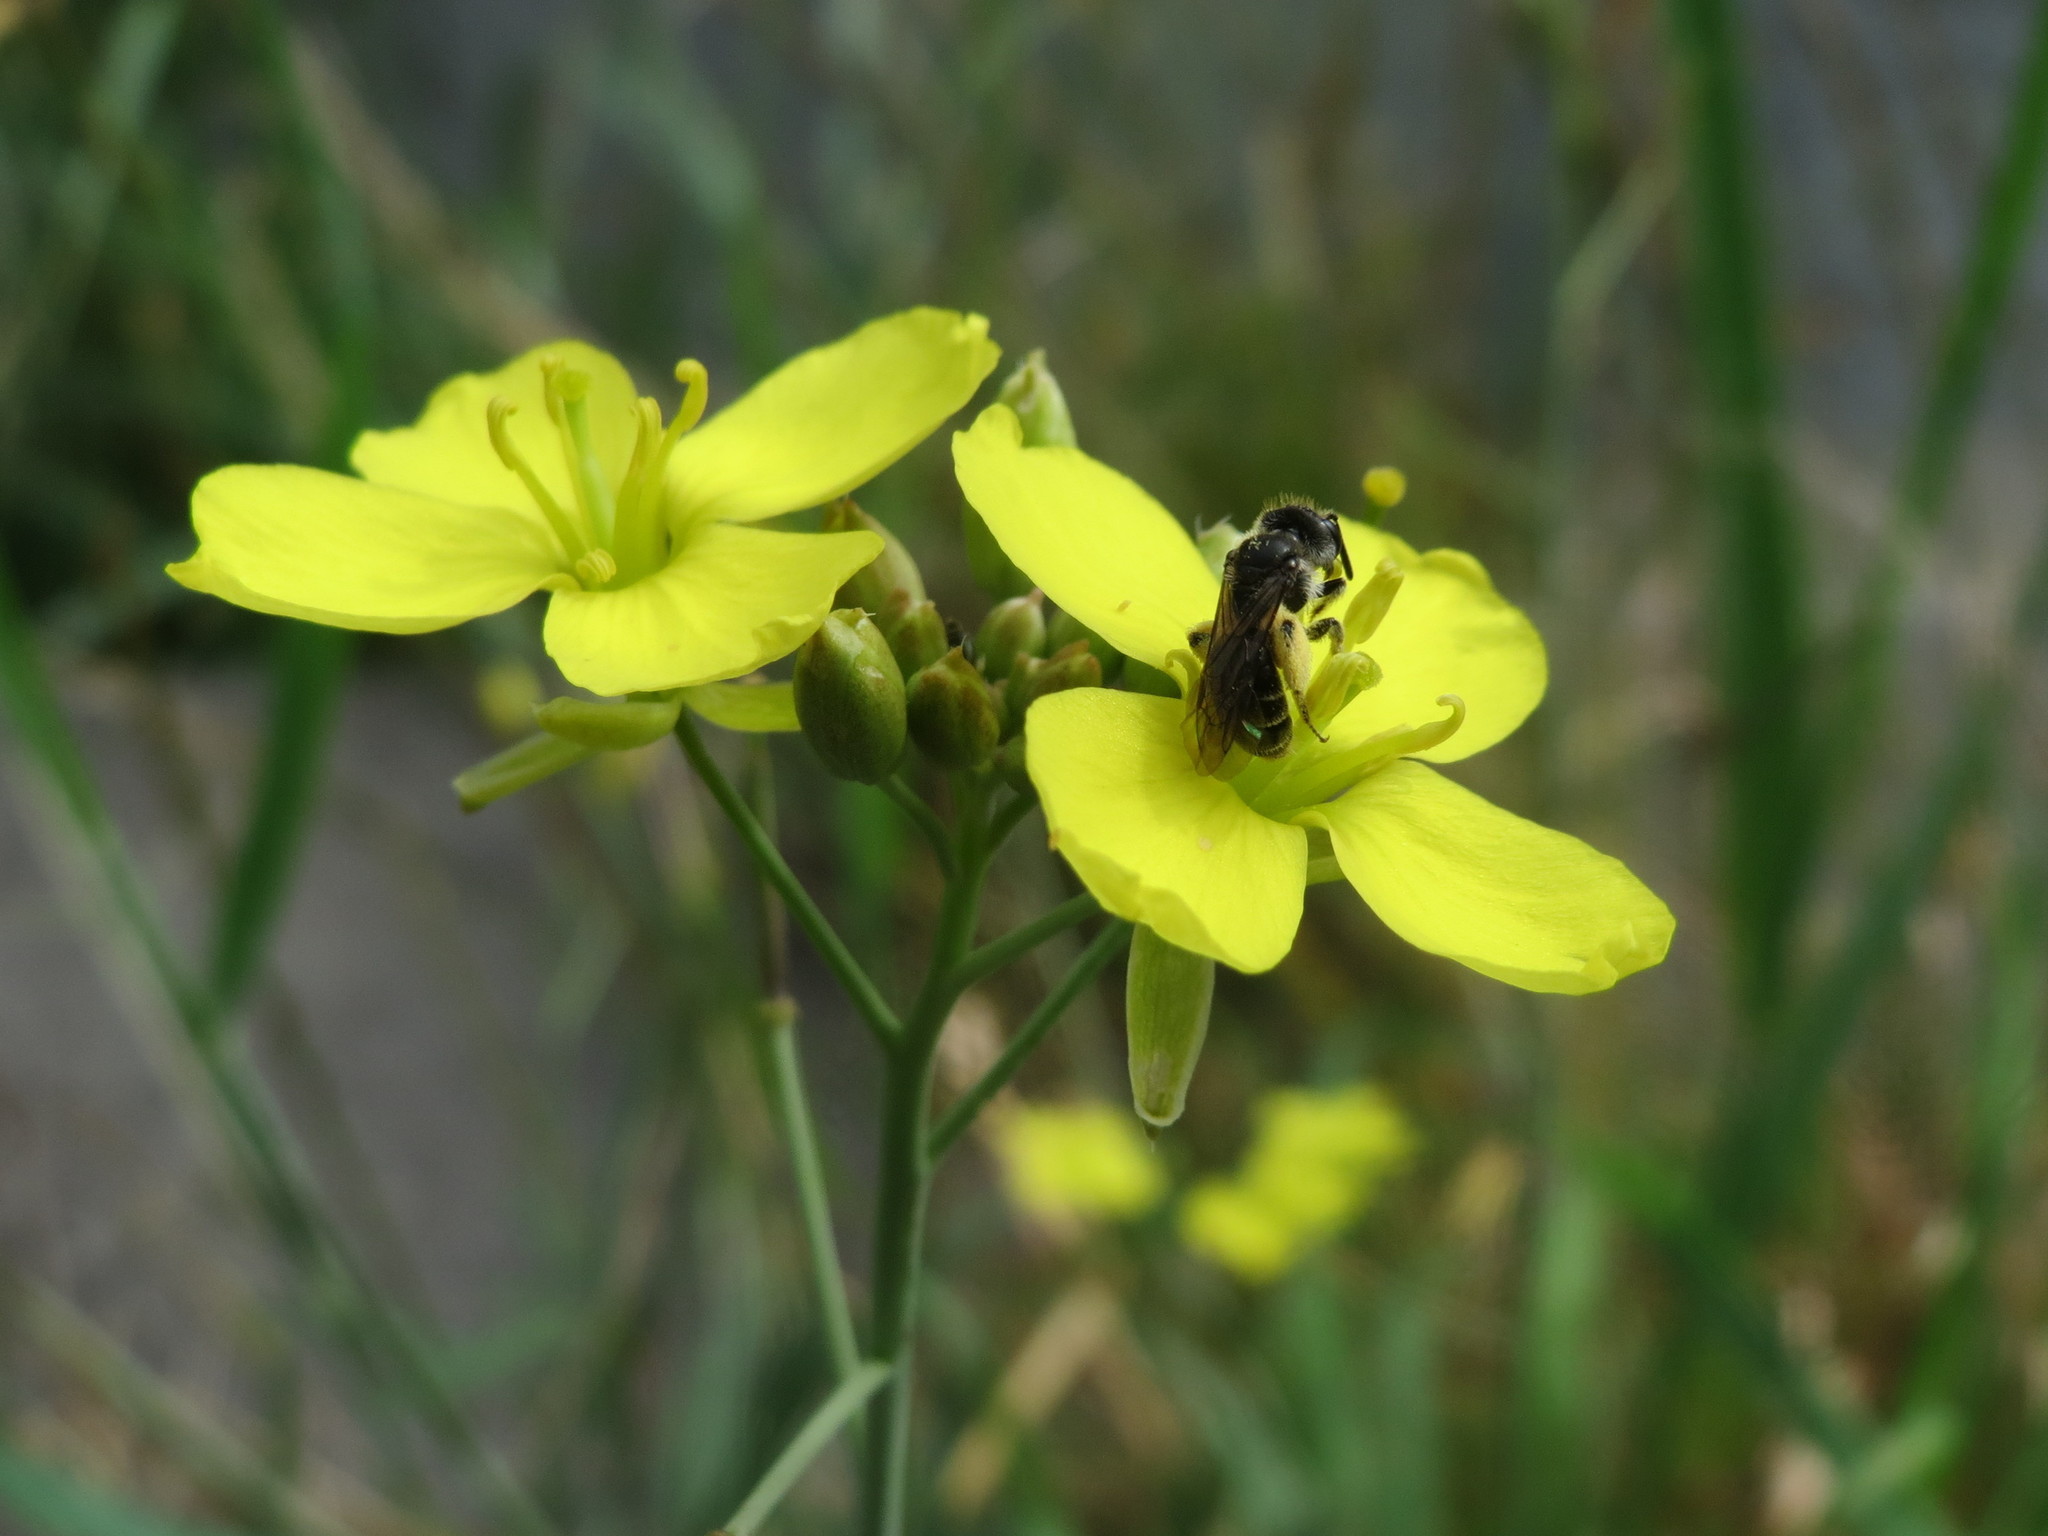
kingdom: Plantae
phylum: Tracheophyta
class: Magnoliopsida
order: Brassicales
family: Brassicaceae
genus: Diplotaxis
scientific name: Diplotaxis tenuifolia
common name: Perennial wall-rocket
